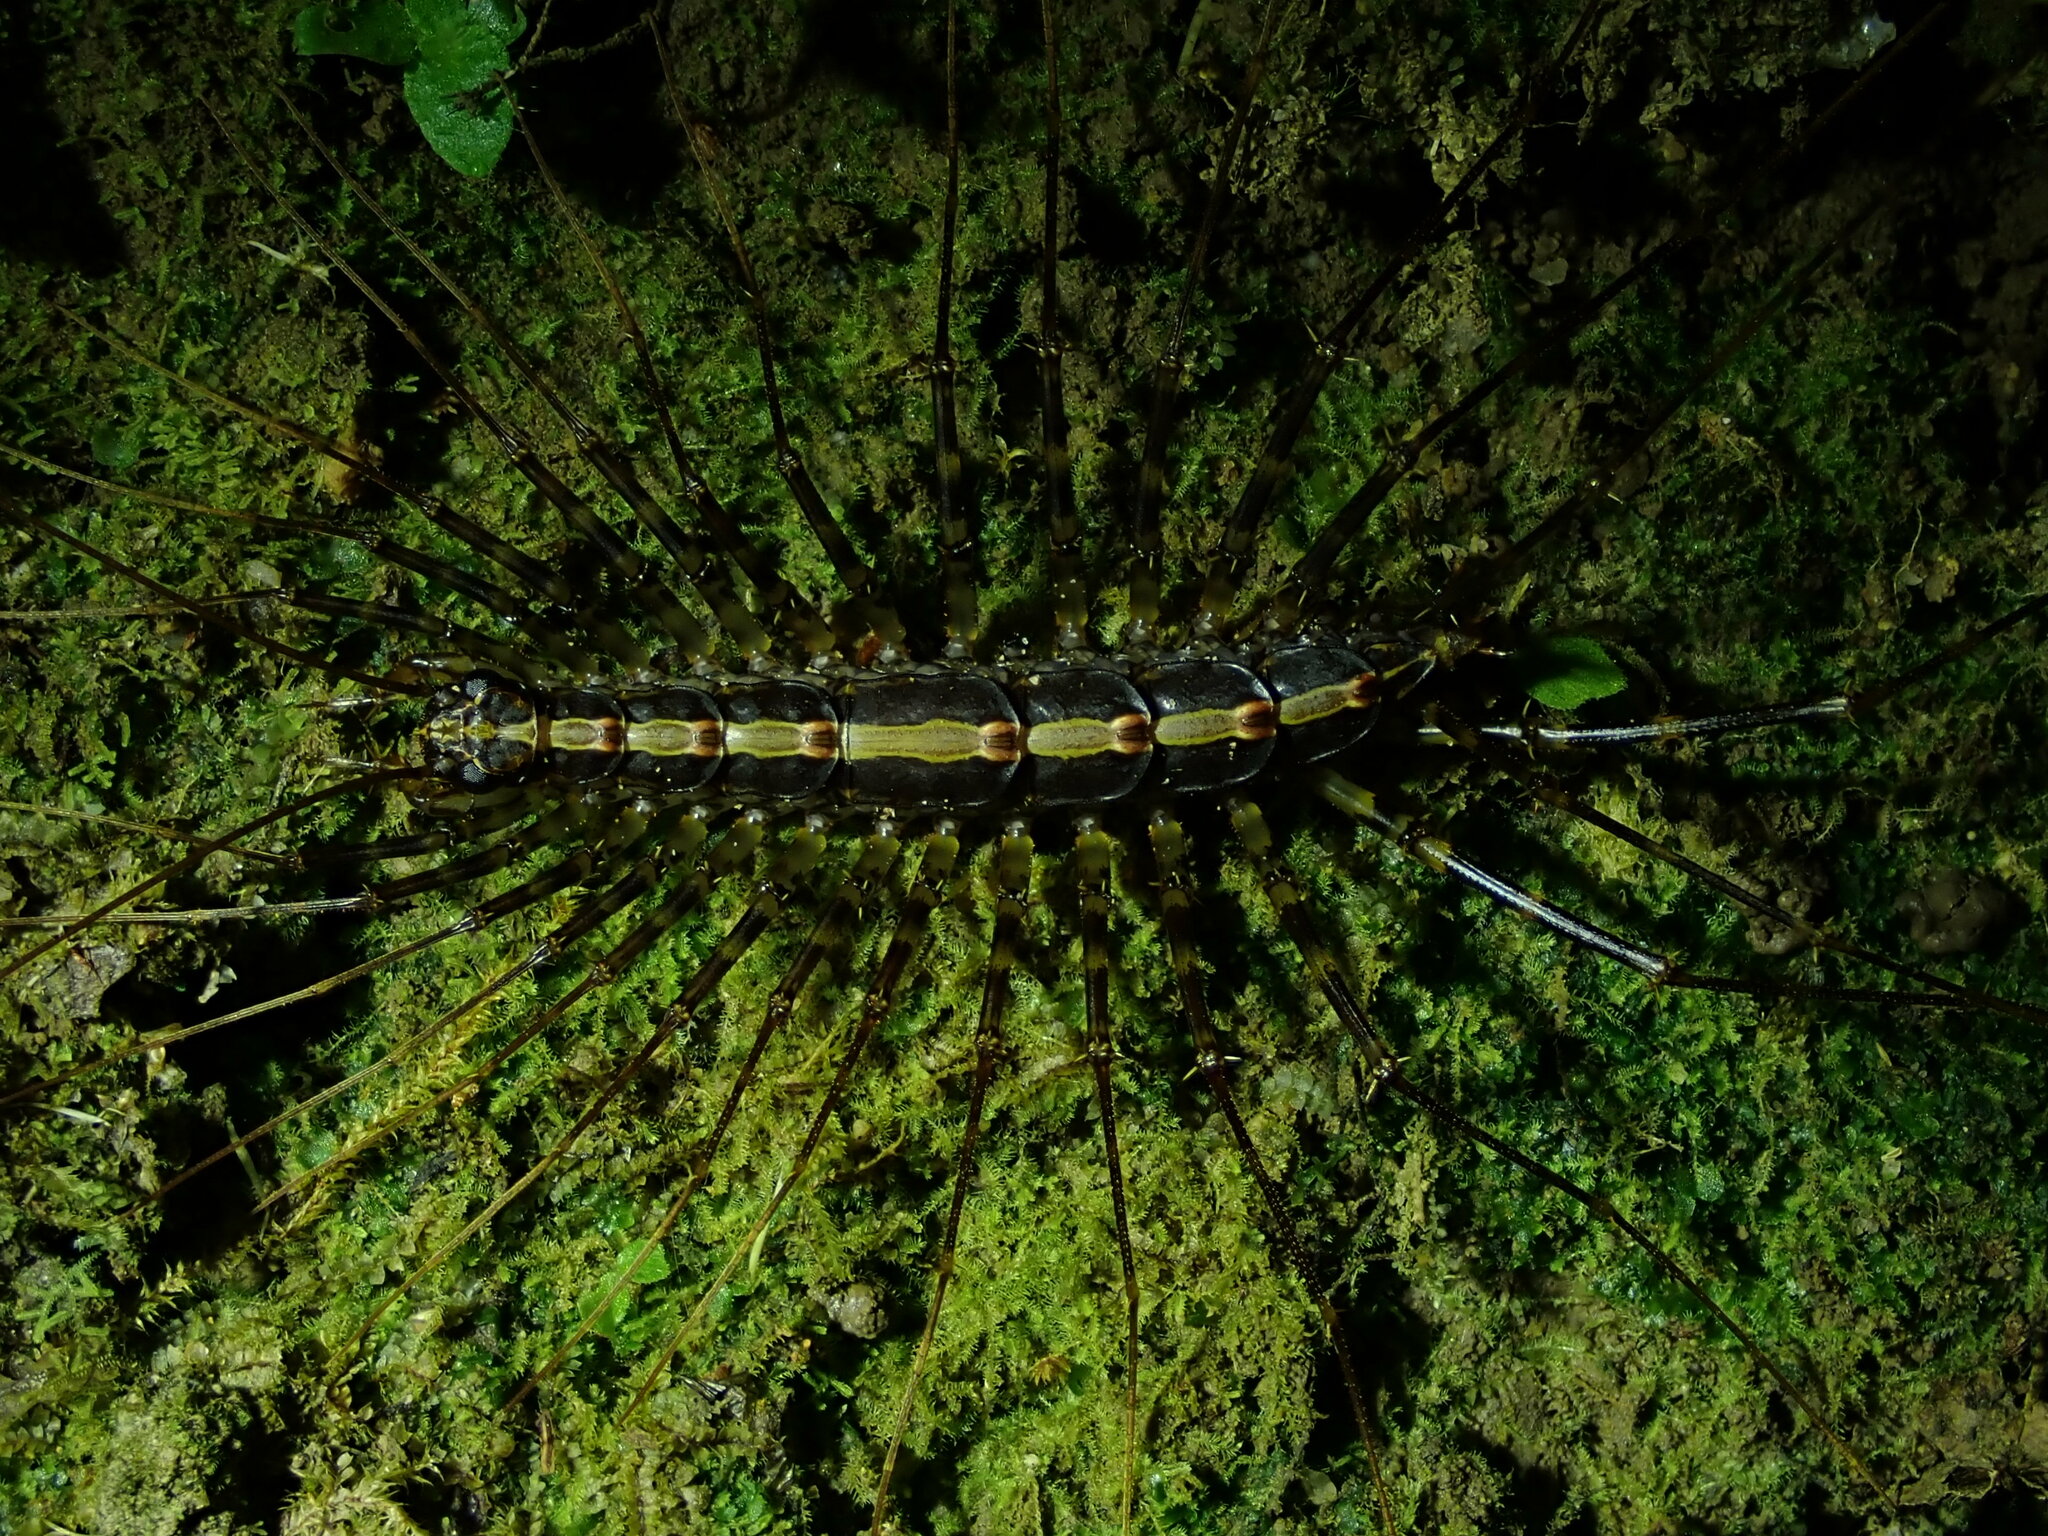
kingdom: Animalia
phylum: Arthropoda
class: Chilopoda
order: Scutigeromorpha
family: Pselliodidae
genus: Sphendononema
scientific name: Sphendononema guildingii
